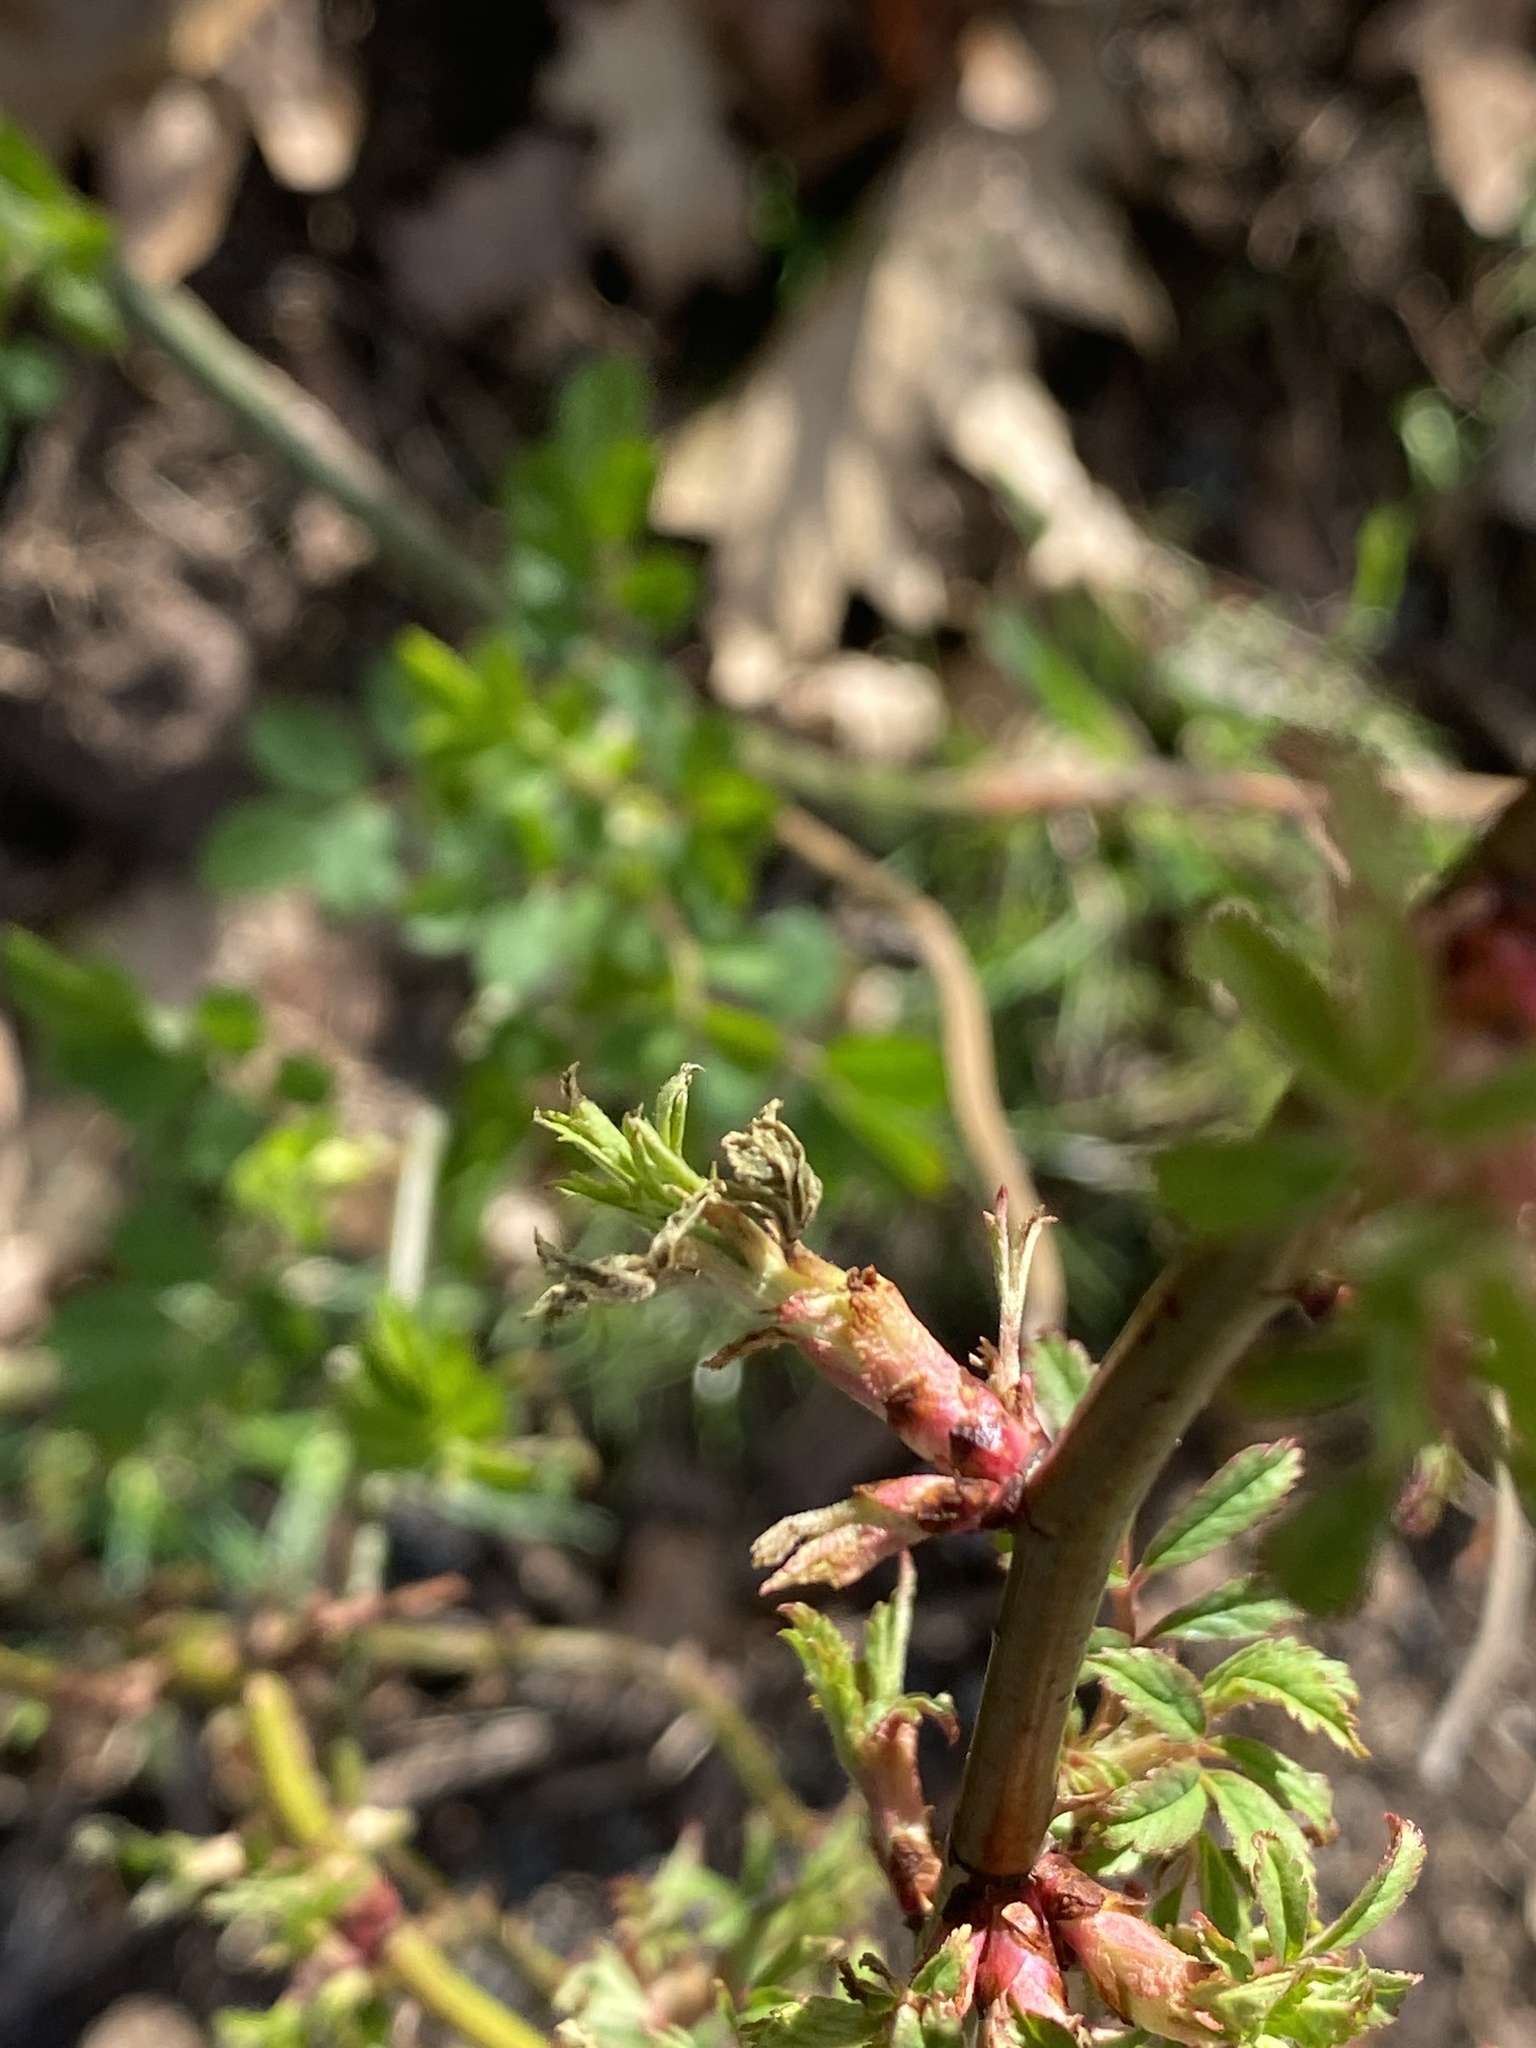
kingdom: Viruses
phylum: Negarnaviricota
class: Ellioviricetes
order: Bunyavirales
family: Fimoviridae
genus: Emaravirus
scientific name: Emaravirus rosae
